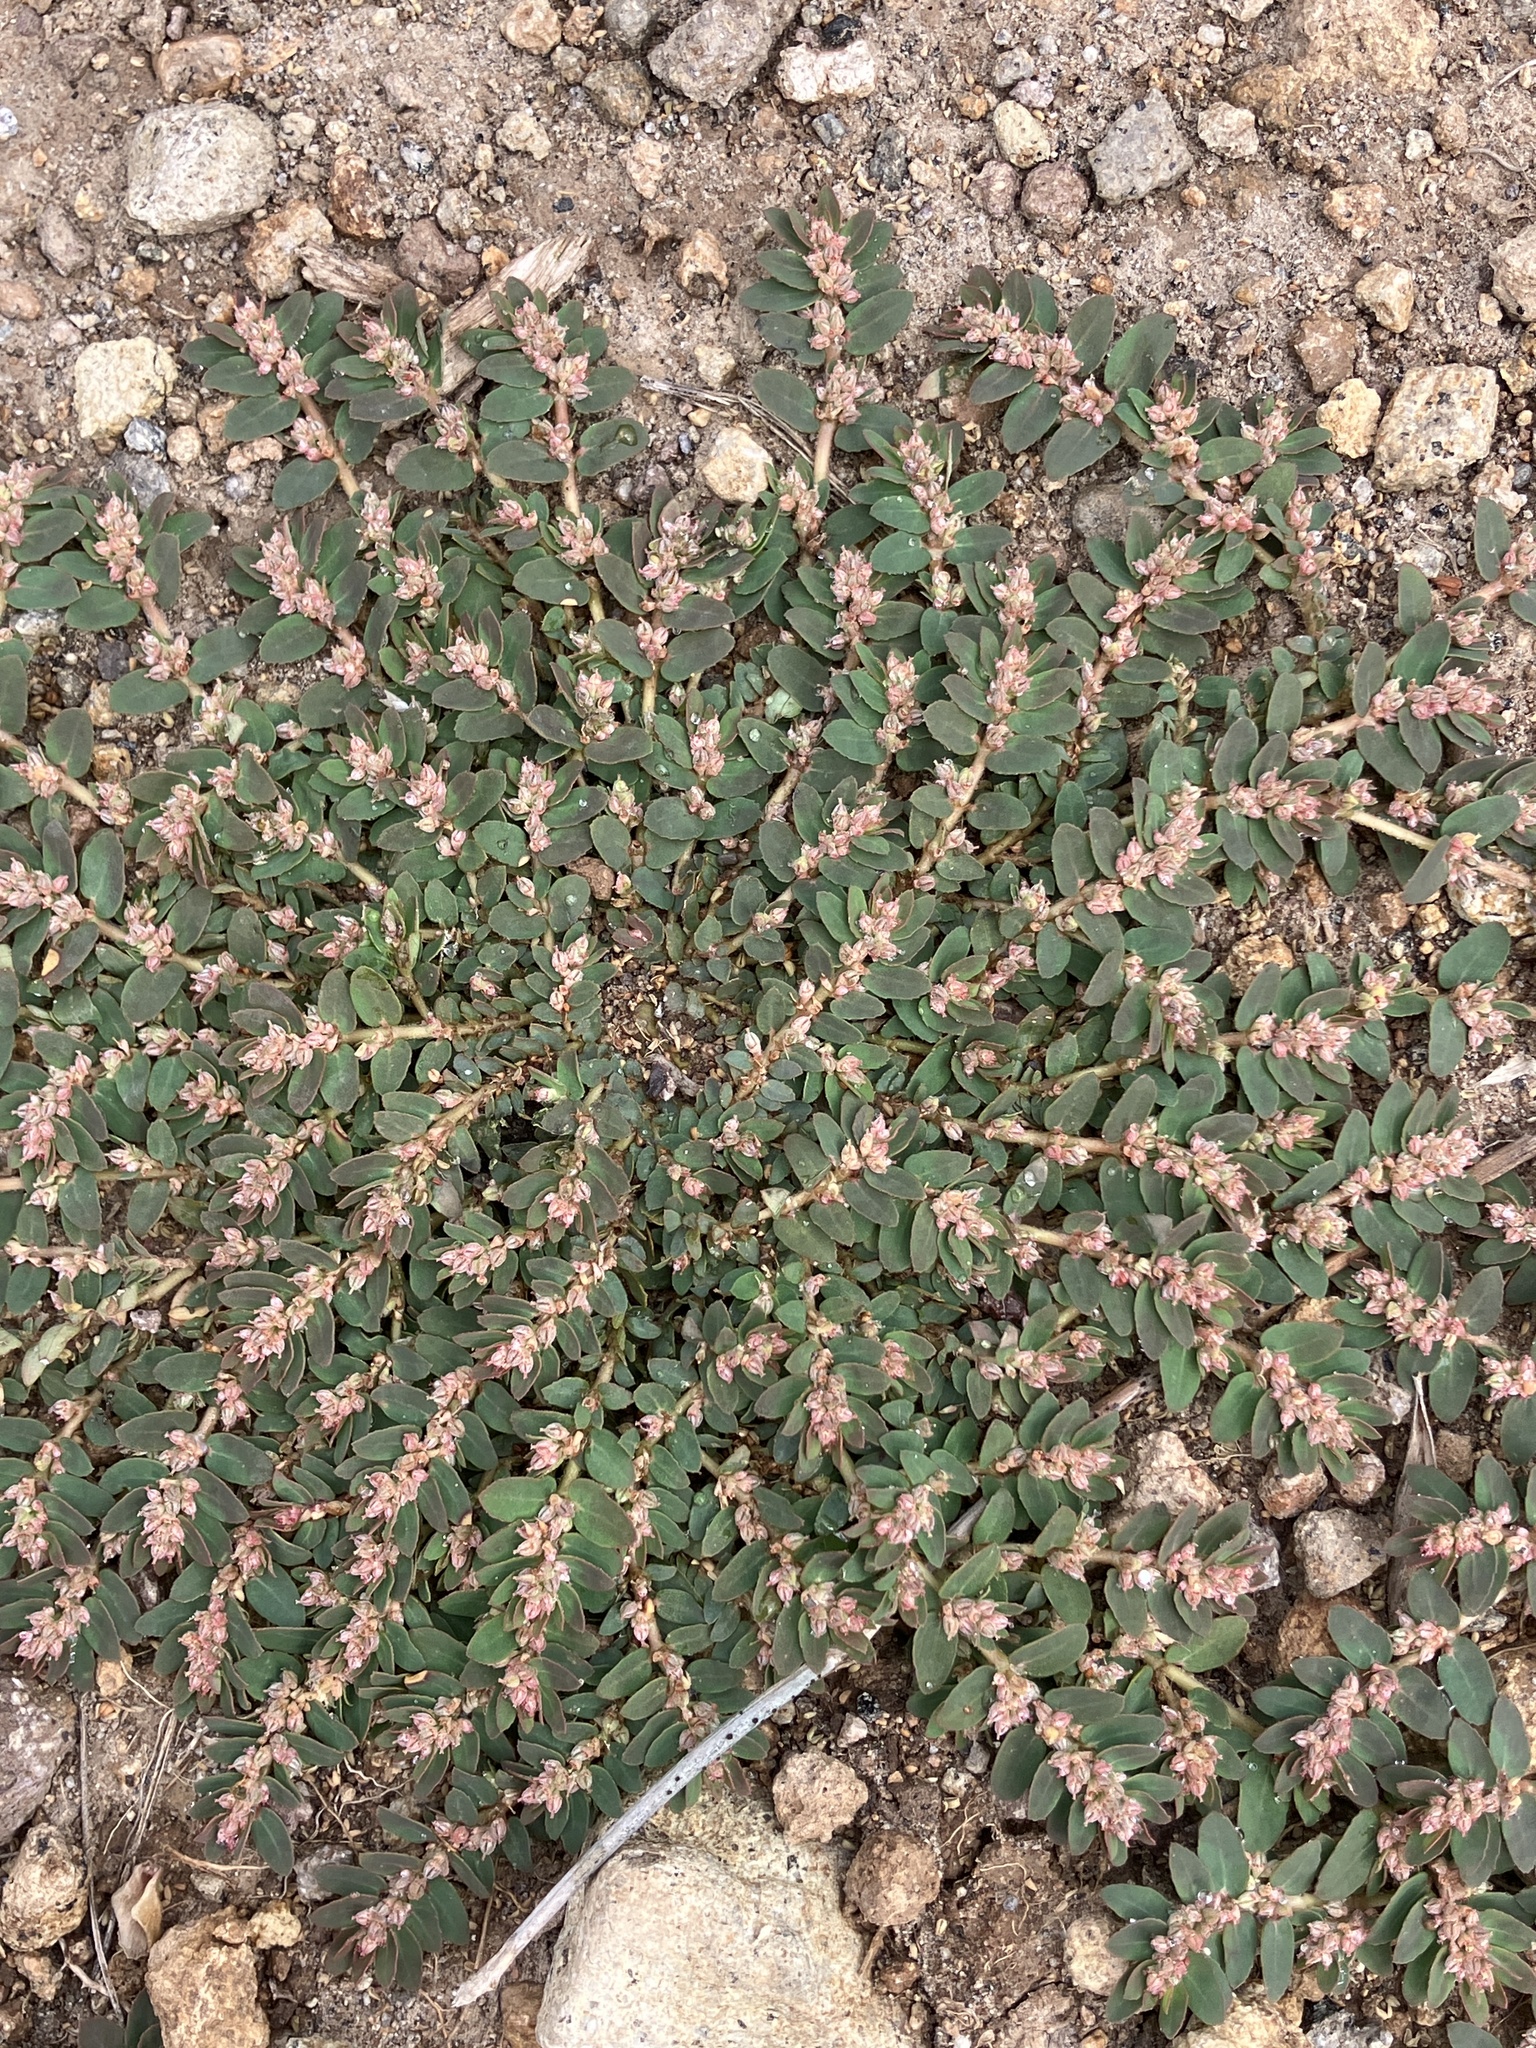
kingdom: Plantae
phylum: Tracheophyta
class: Magnoliopsida
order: Malpighiales
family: Euphorbiaceae
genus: Euphorbia
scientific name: Euphorbia thymifolia
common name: Gulf sandmat
